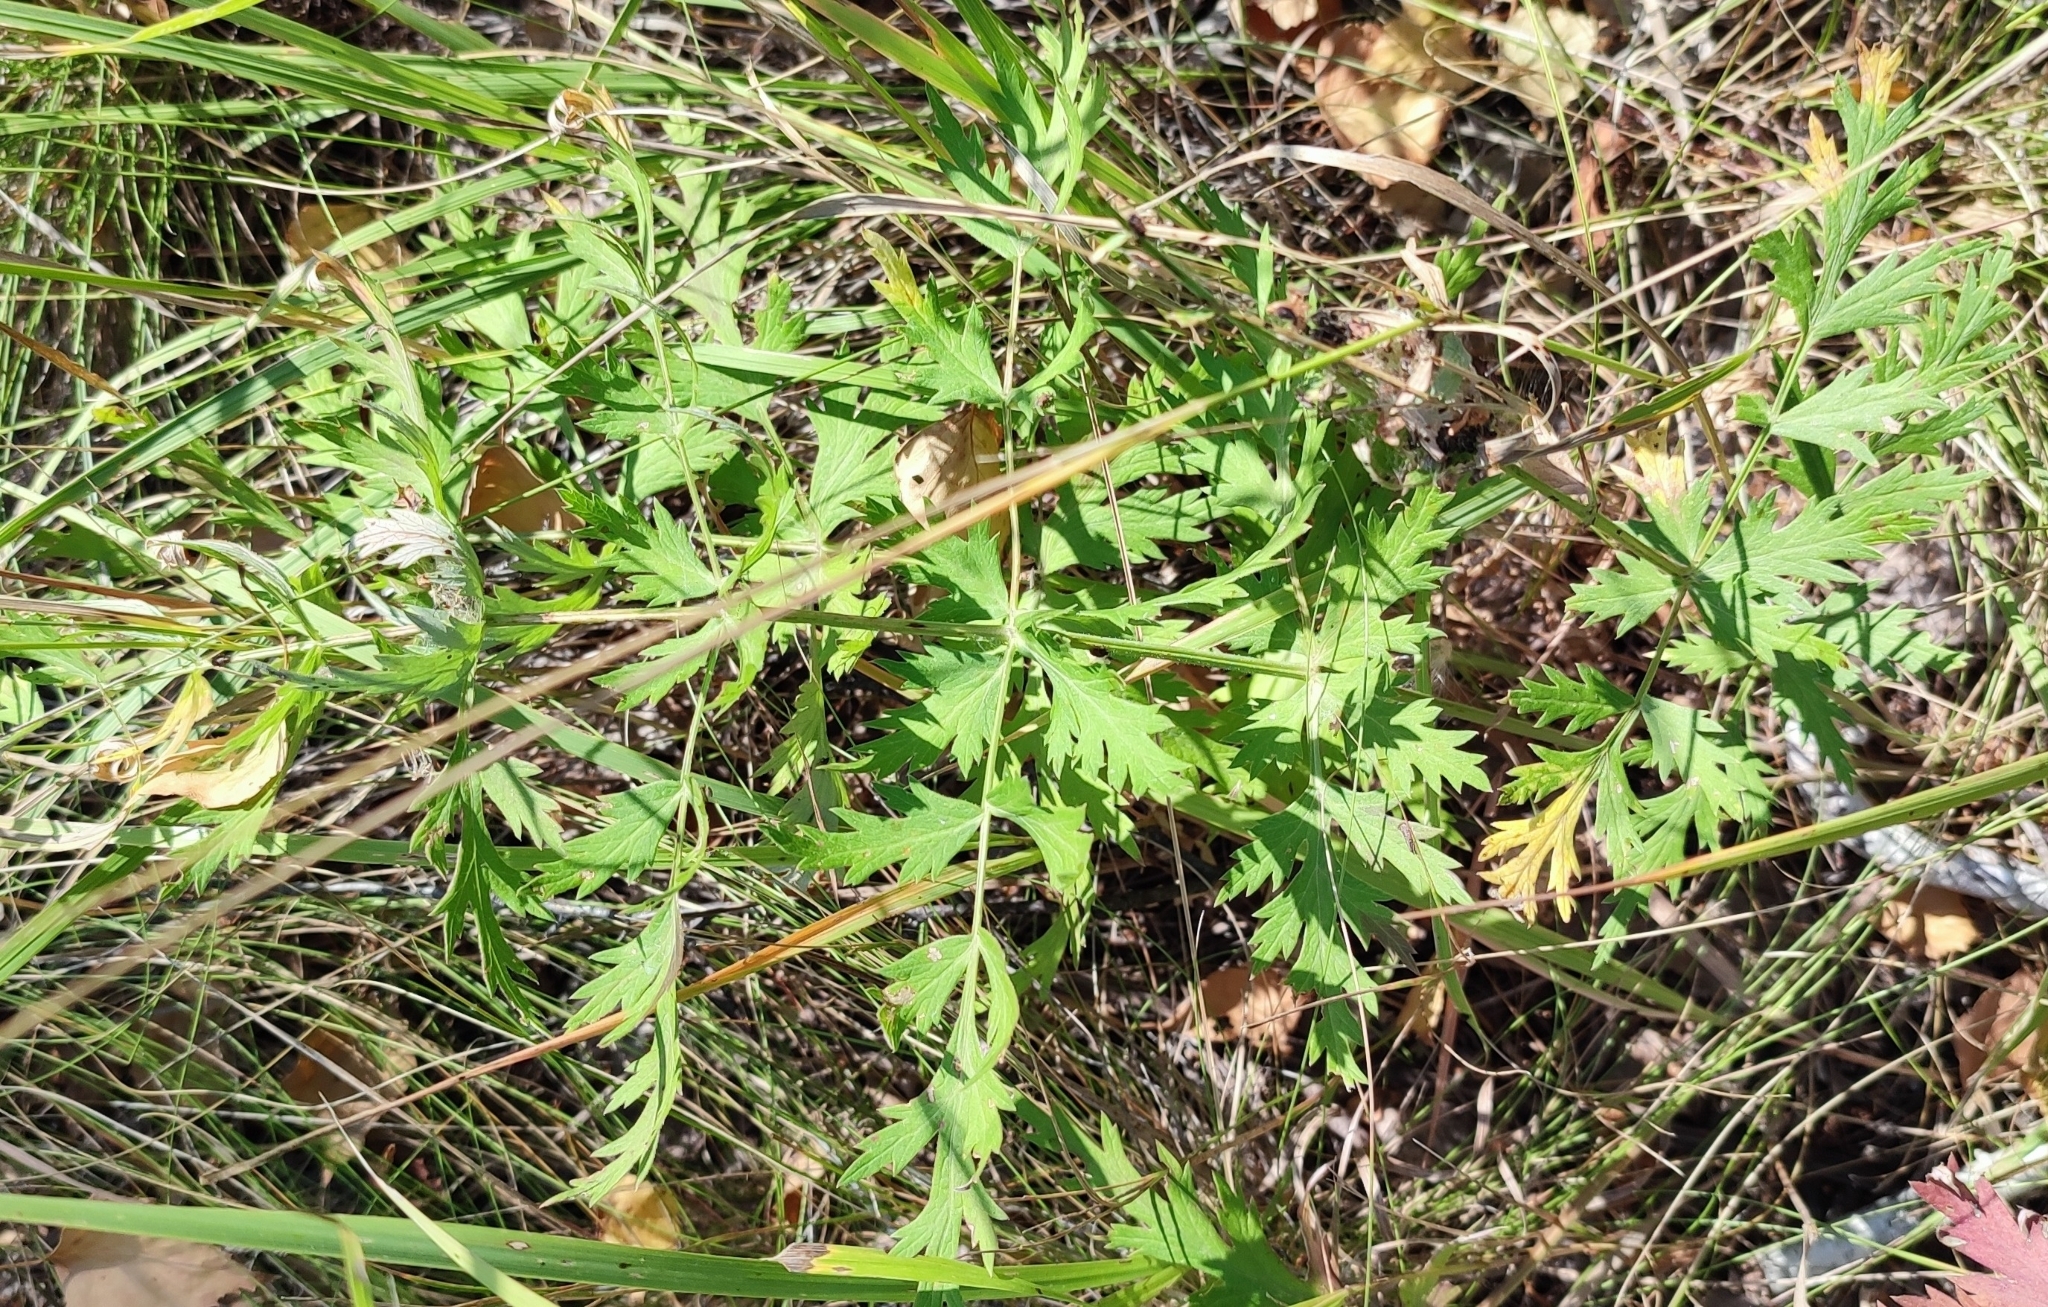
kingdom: Plantae
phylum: Tracheophyta
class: Magnoliopsida
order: Apiales
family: Apiaceae
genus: Seseli
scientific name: Seseli libanotis
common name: Mooncarrot
